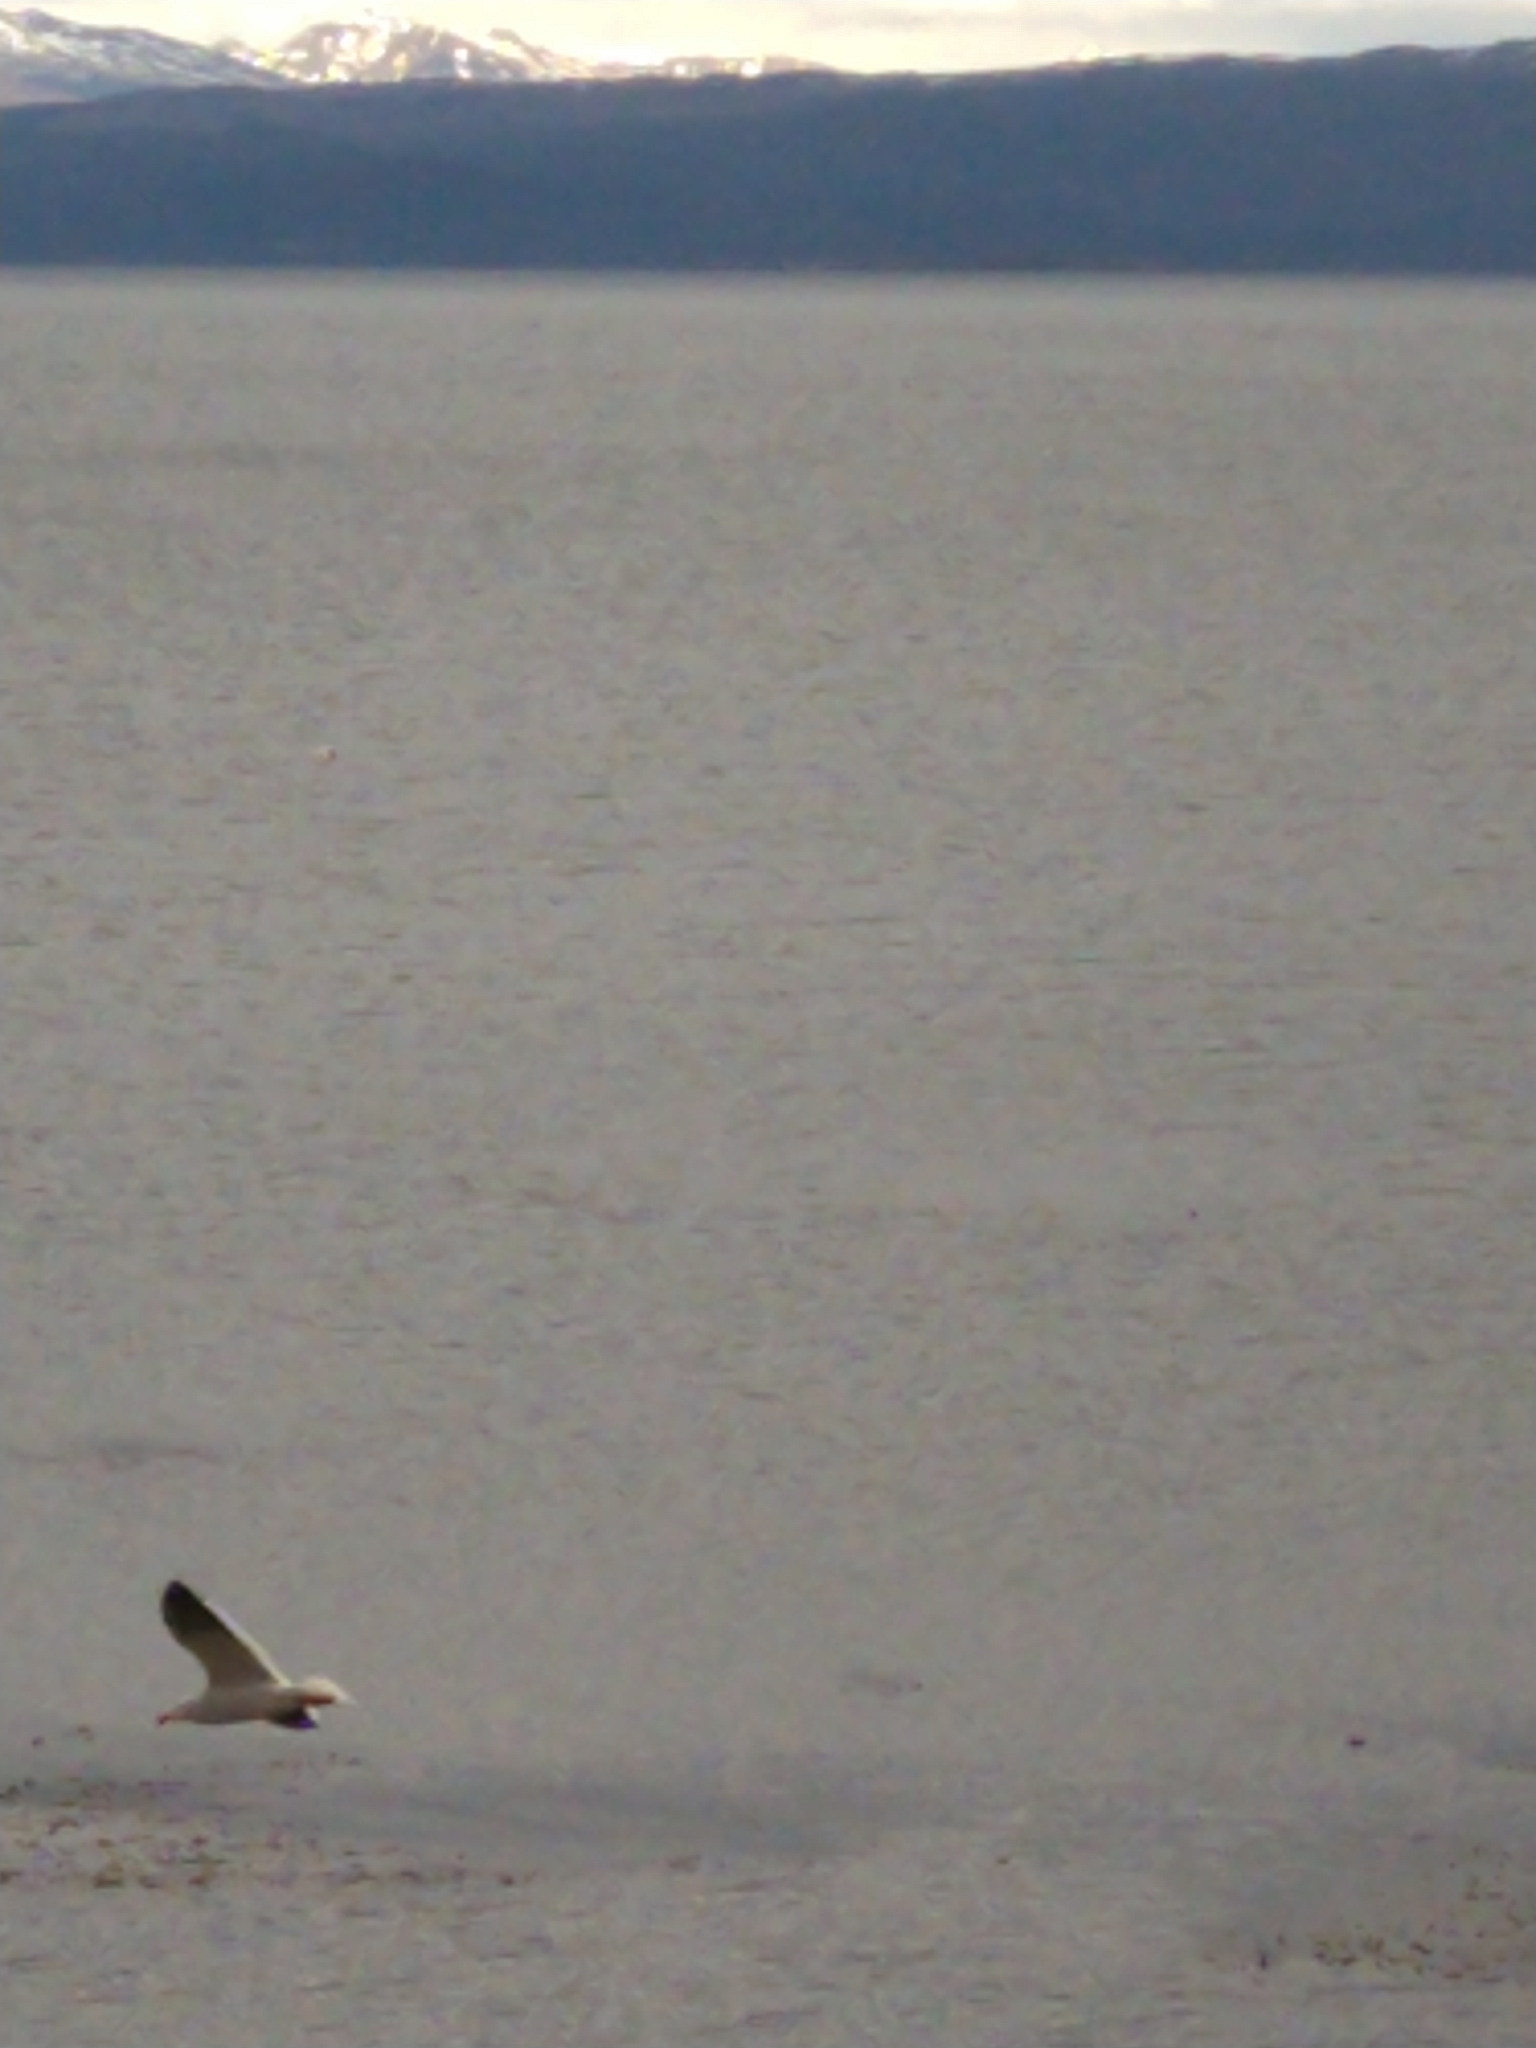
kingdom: Animalia
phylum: Chordata
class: Aves
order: Charadriiformes
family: Laridae
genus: Leucophaeus
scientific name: Leucophaeus scoresbii
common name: Dolphin gull
